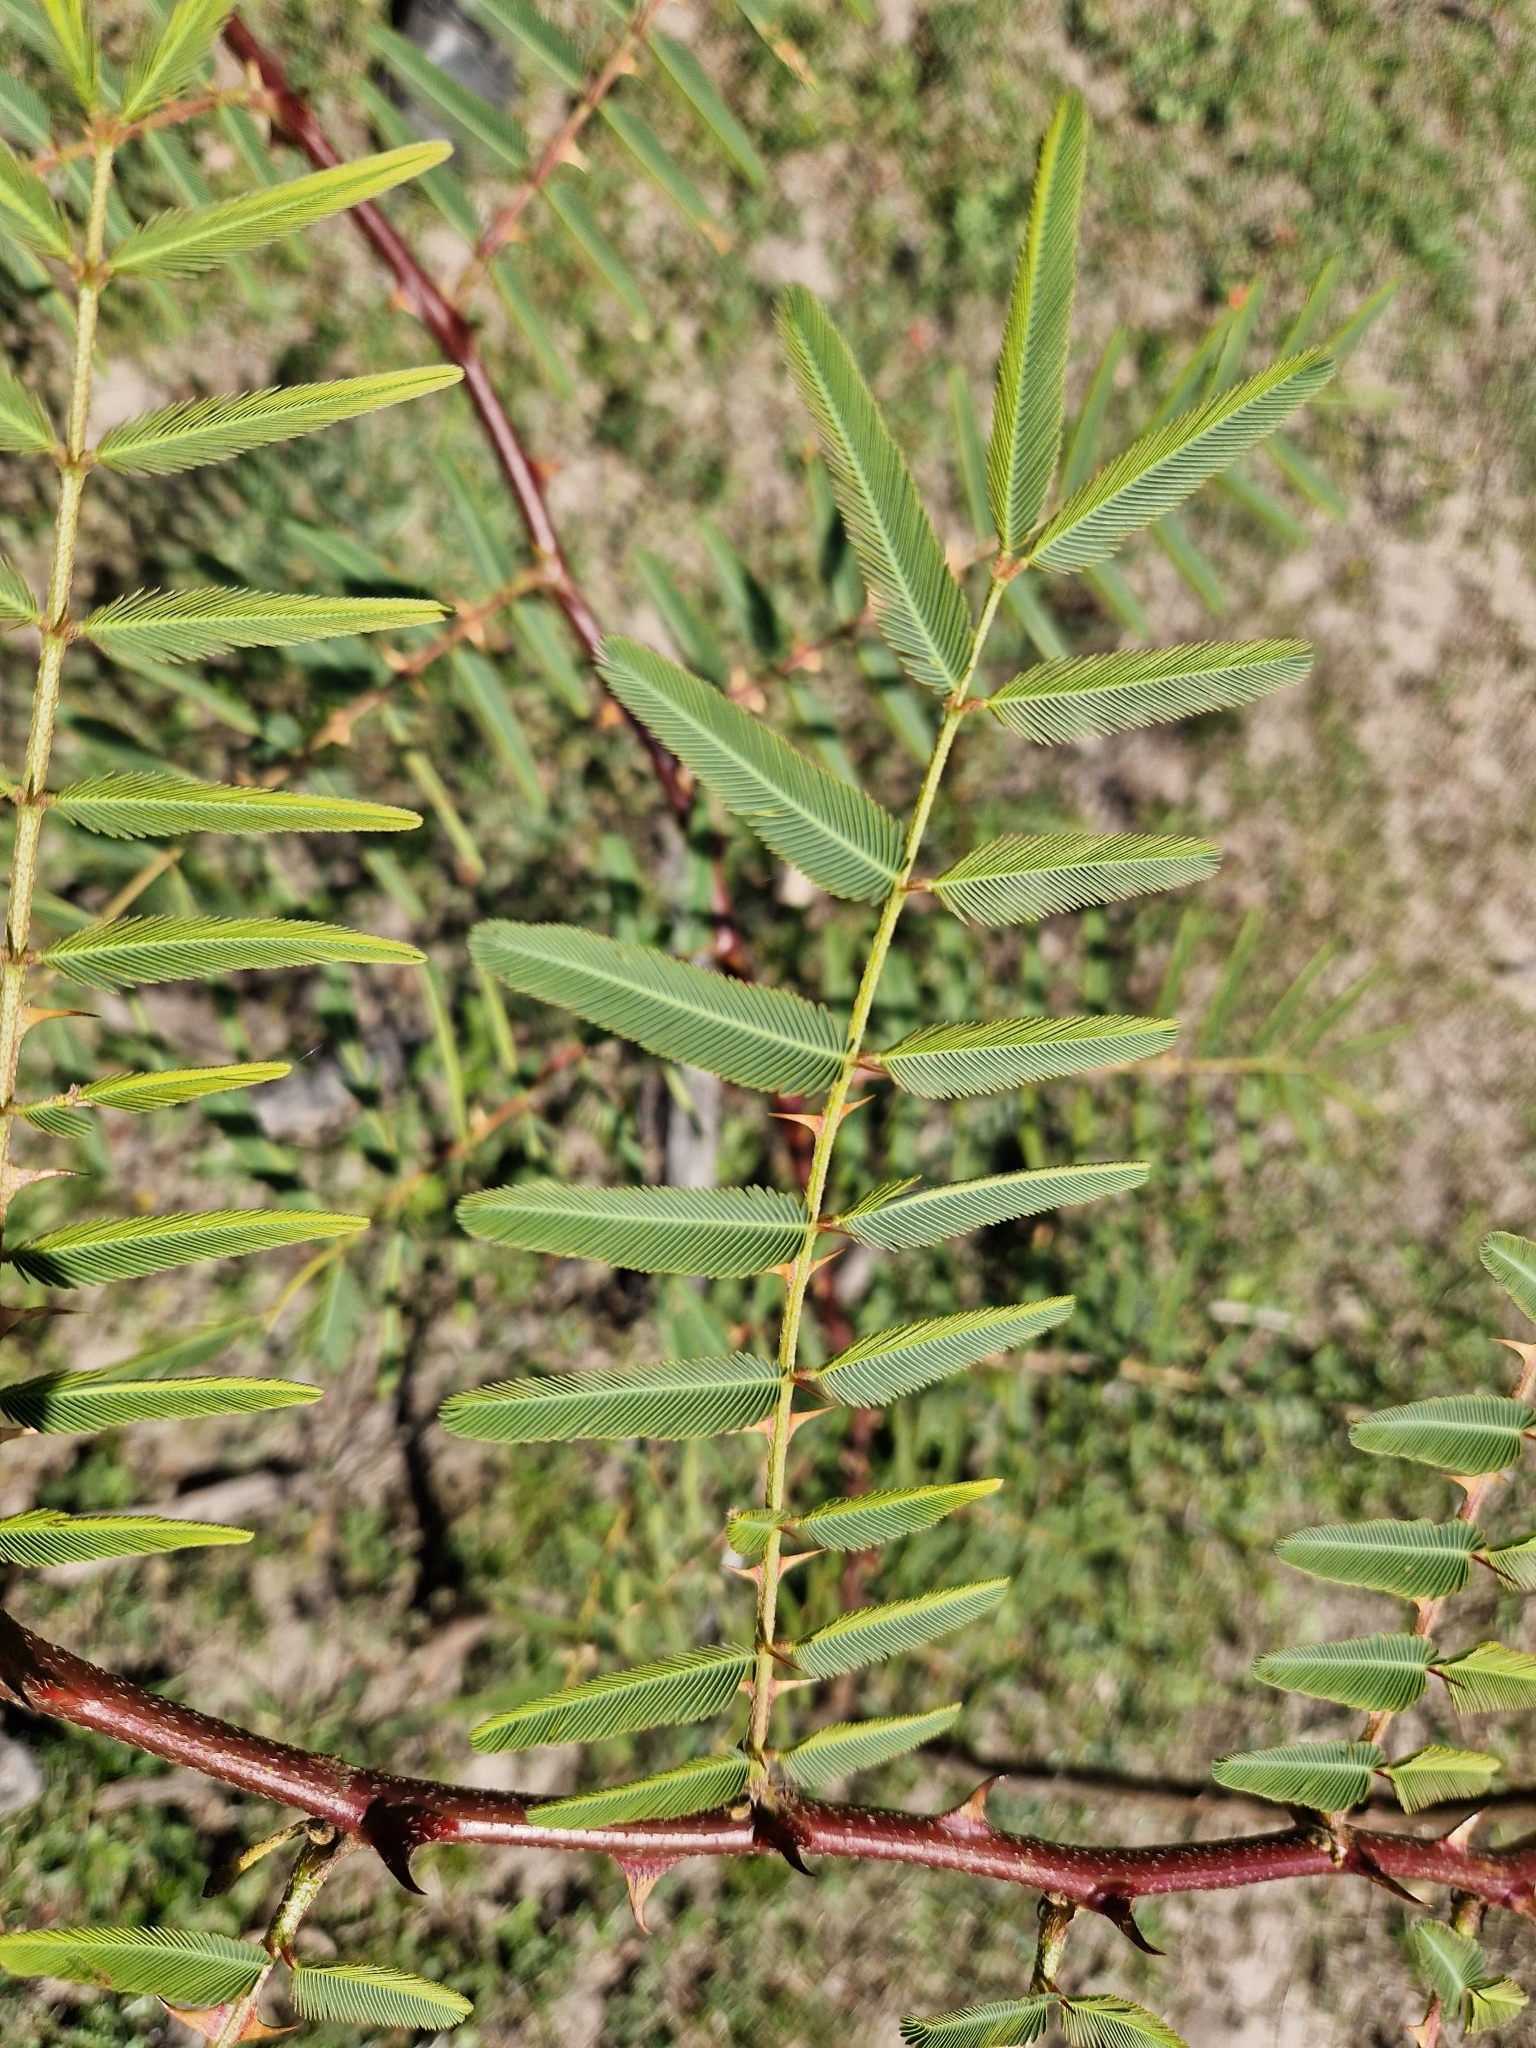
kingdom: Plantae
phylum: Tracheophyta
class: Magnoliopsida
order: Fabales
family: Fabaceae
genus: Mimosa
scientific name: Mimosa pigra
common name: Black mimosa
